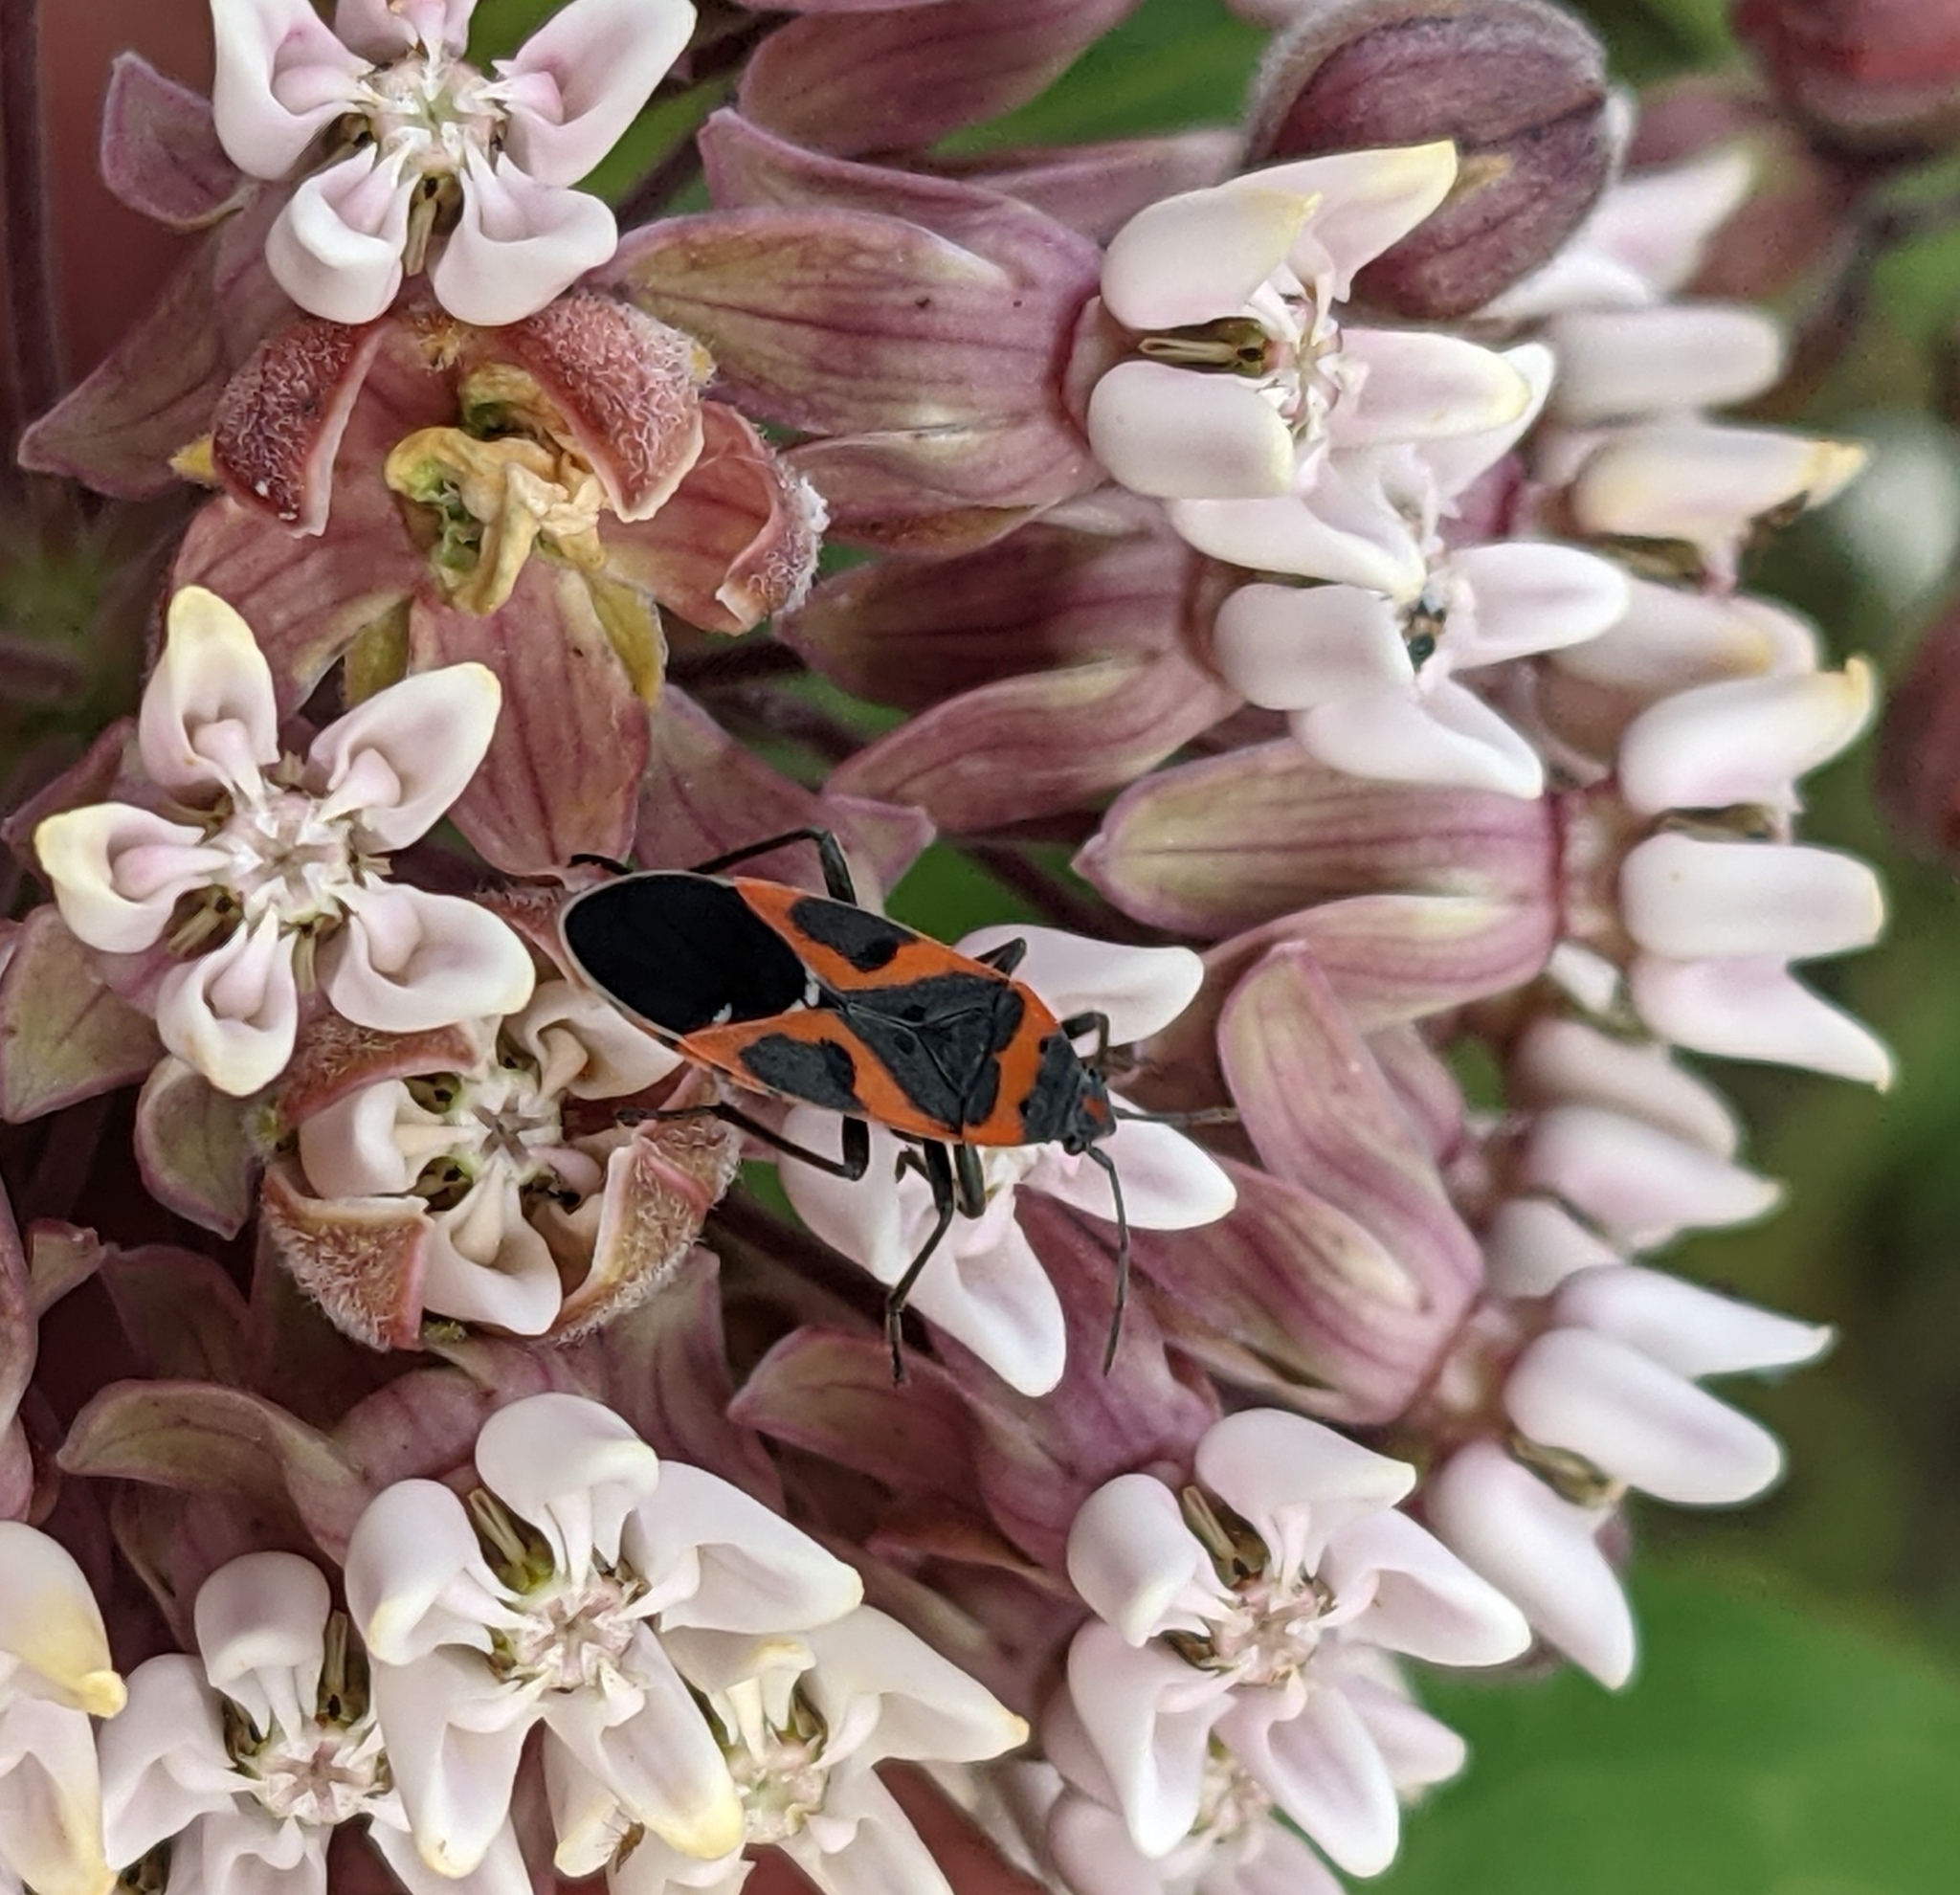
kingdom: Animalia
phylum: Arthropoda
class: Insecta
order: Hemiptera
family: Lygaeidae
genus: Lygaeus
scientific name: Lygaeus kalmii
